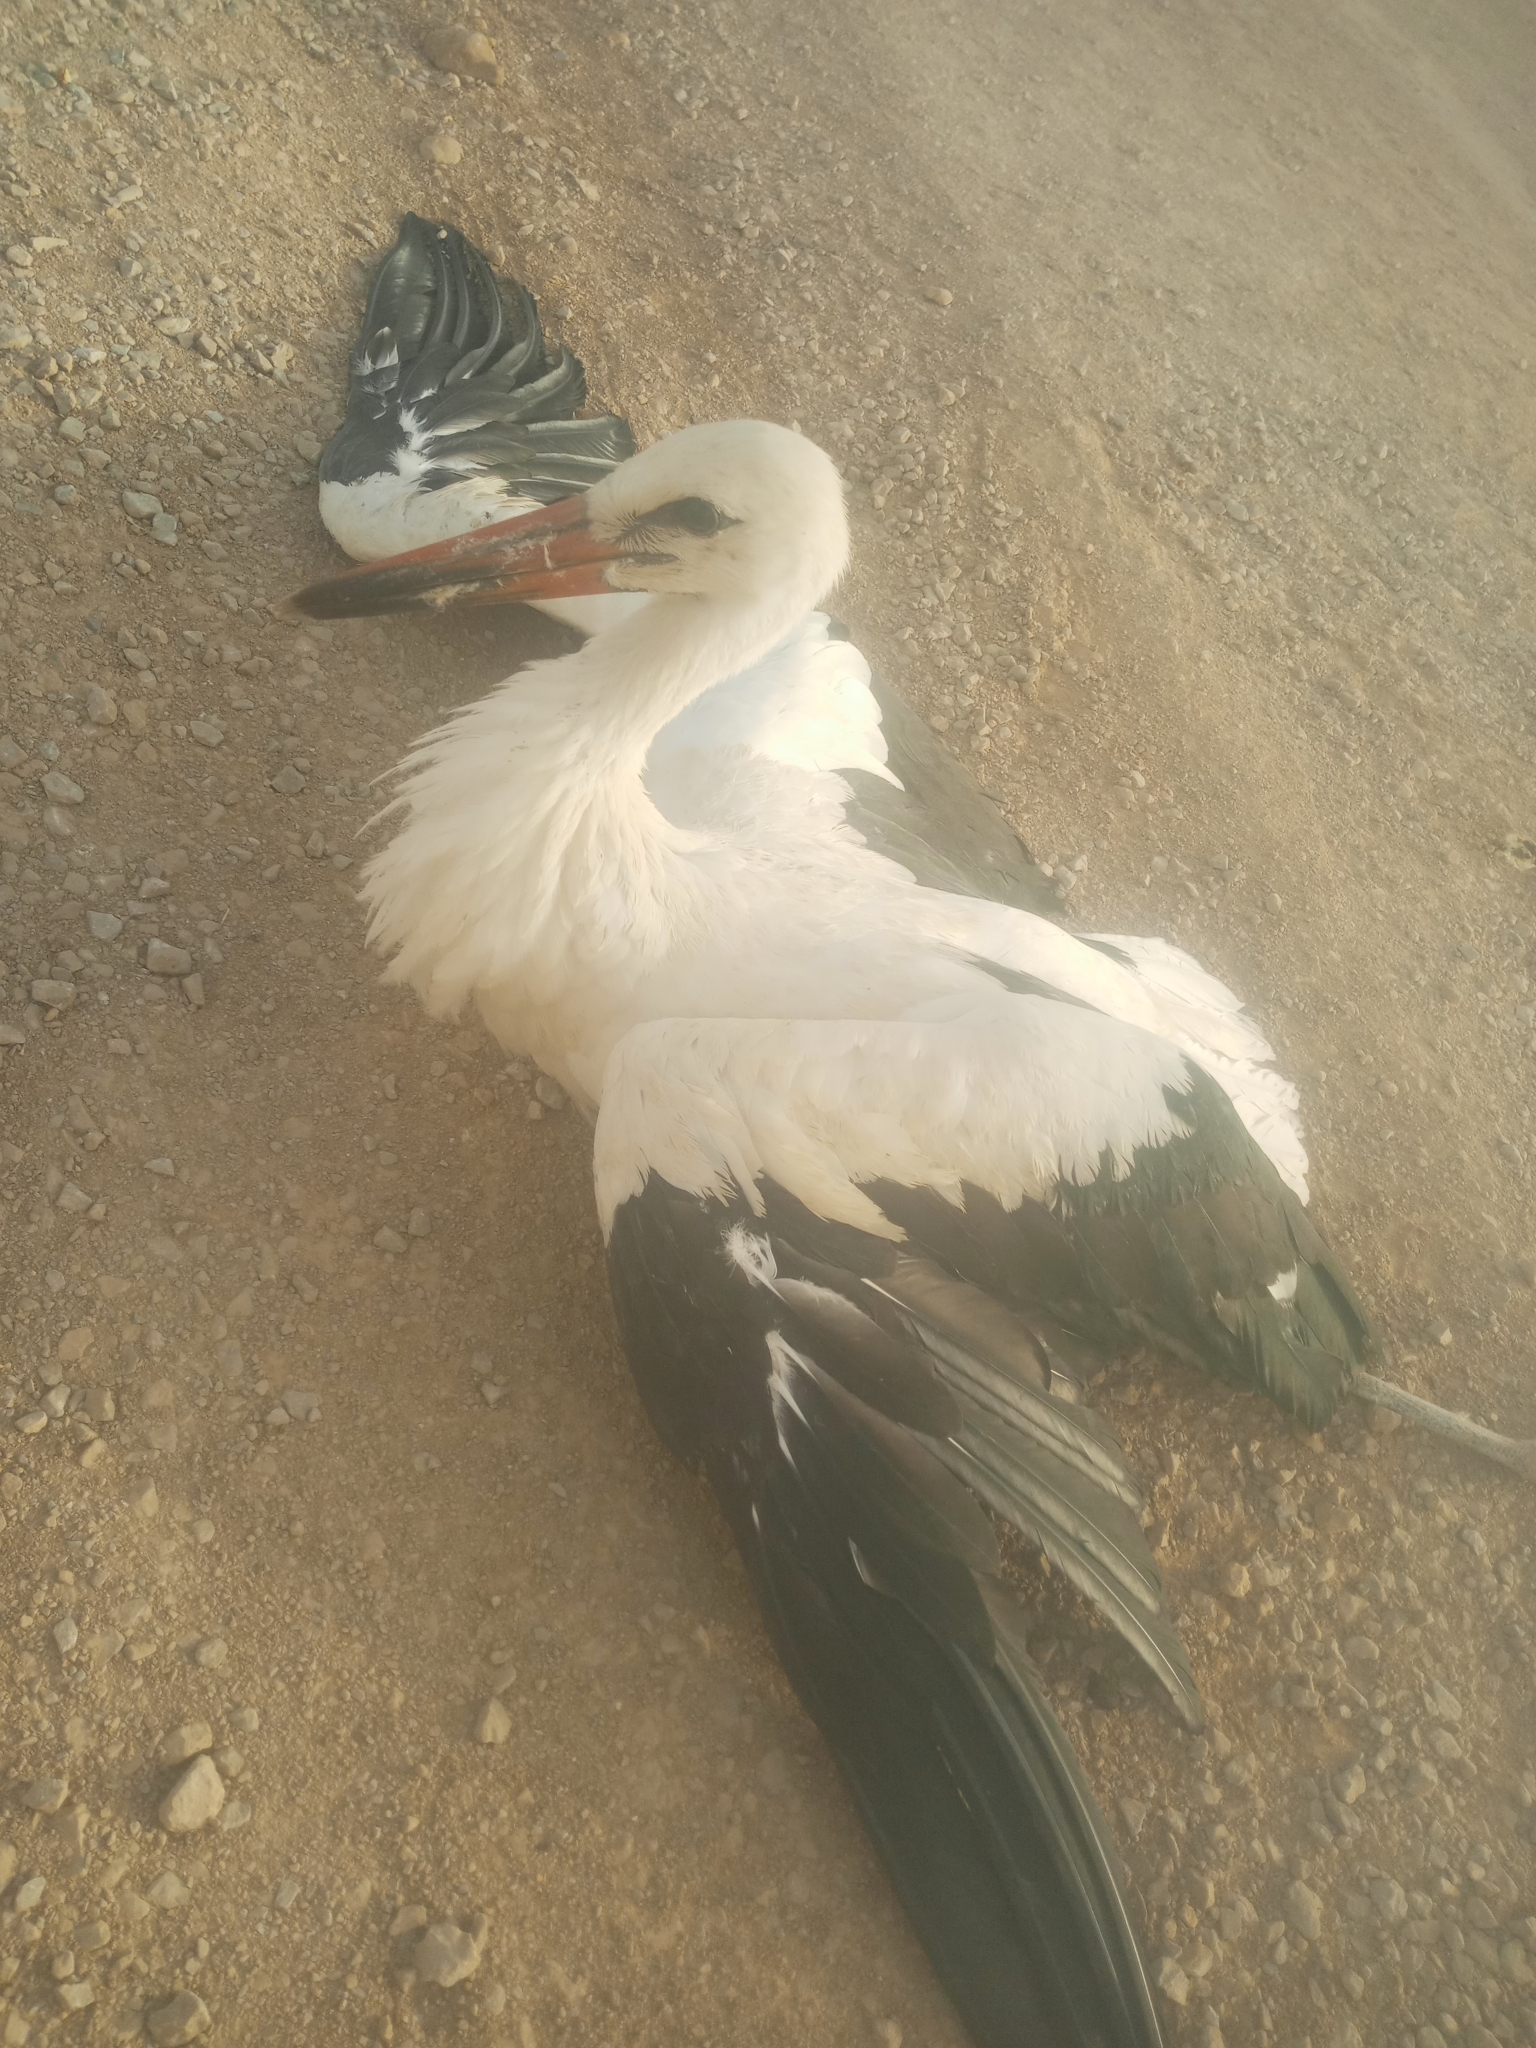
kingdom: Animalia
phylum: Chordata
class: Aves
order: Ciconiiformes
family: Ciconiidae
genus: Ciconia
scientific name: Ciconia ciconia
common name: White stork
